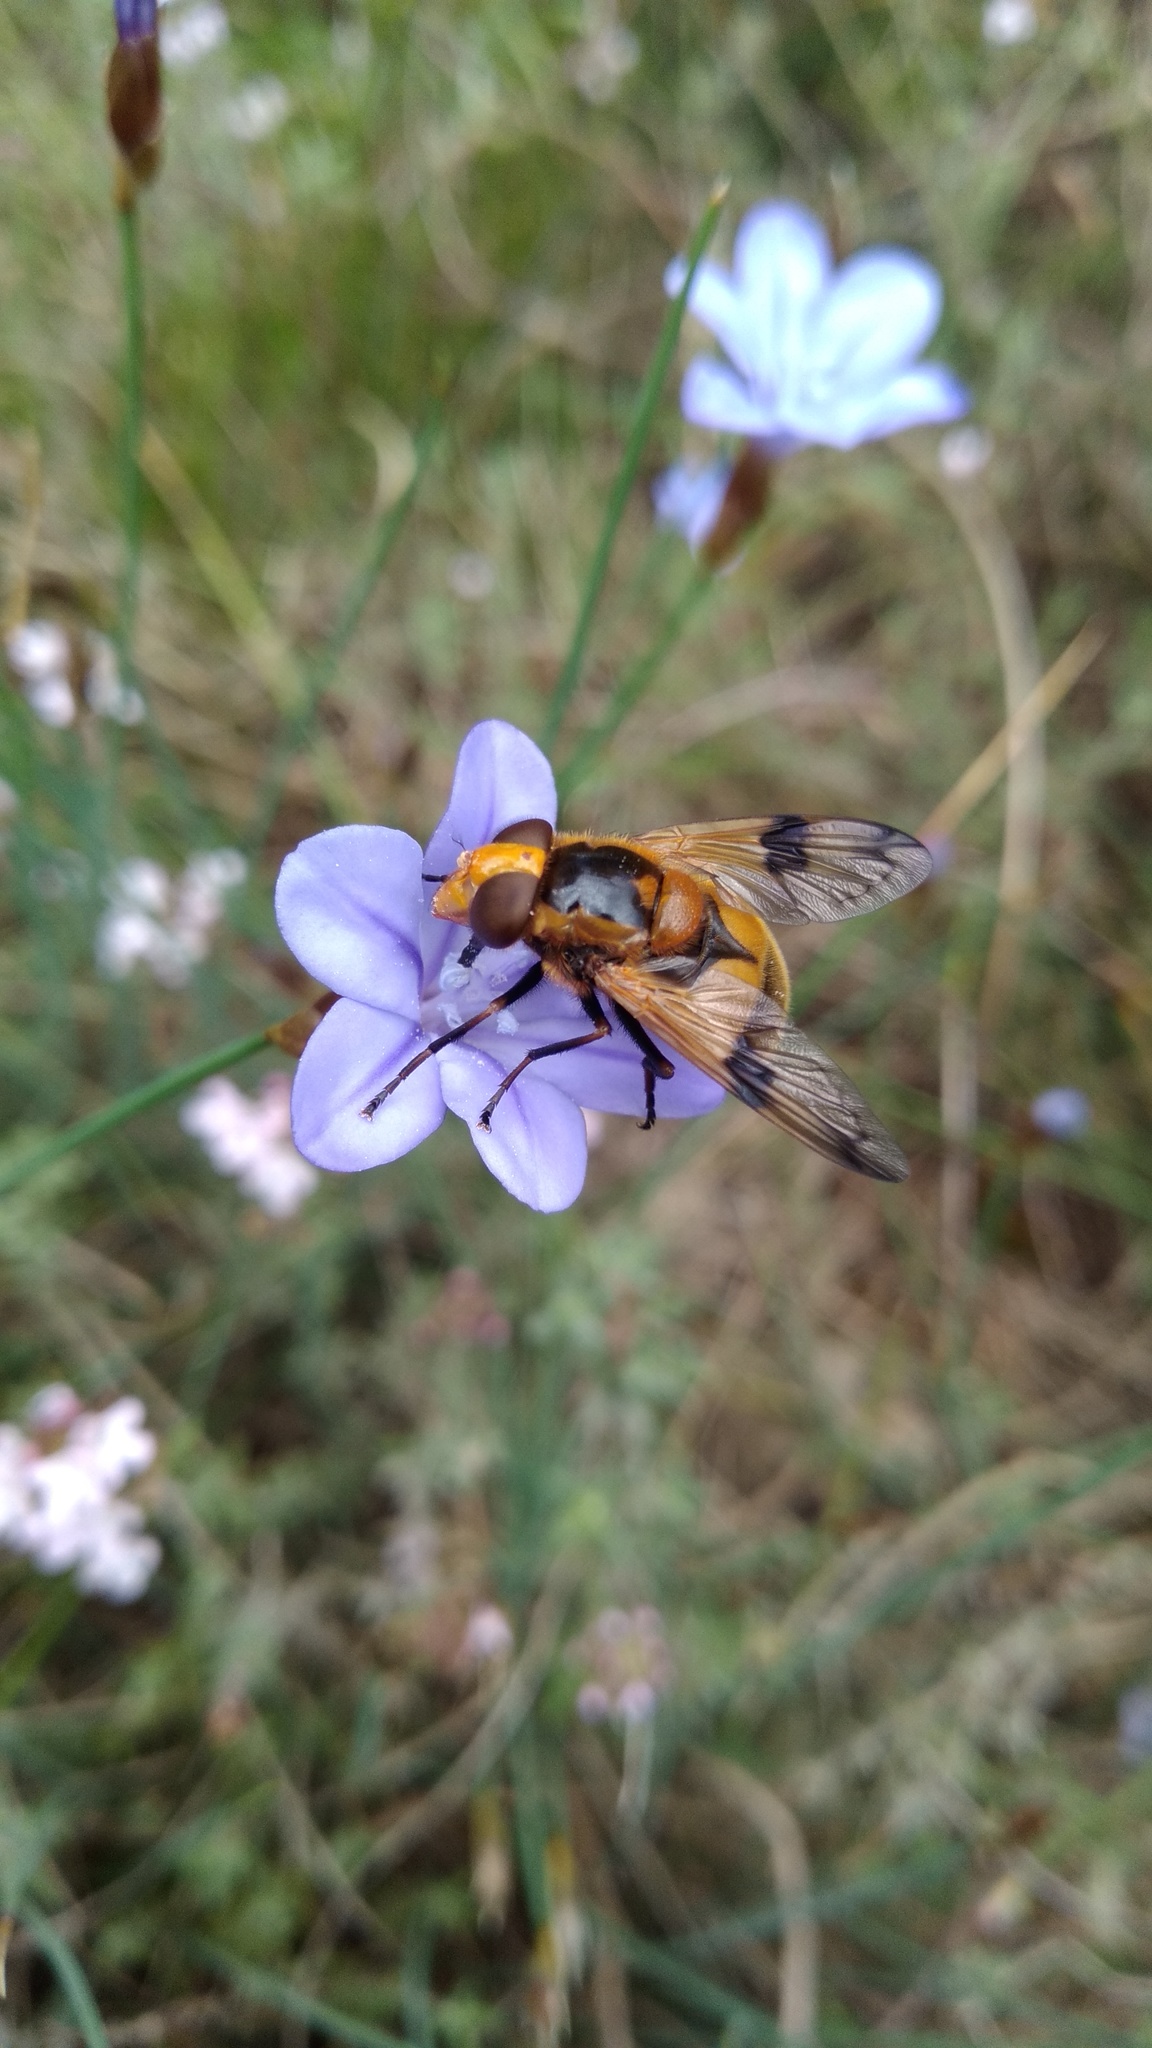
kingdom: Animalia
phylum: Arthropoda
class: Insecta
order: Diptera
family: Syrphidae
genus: Volucella
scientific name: Volucella inflata
